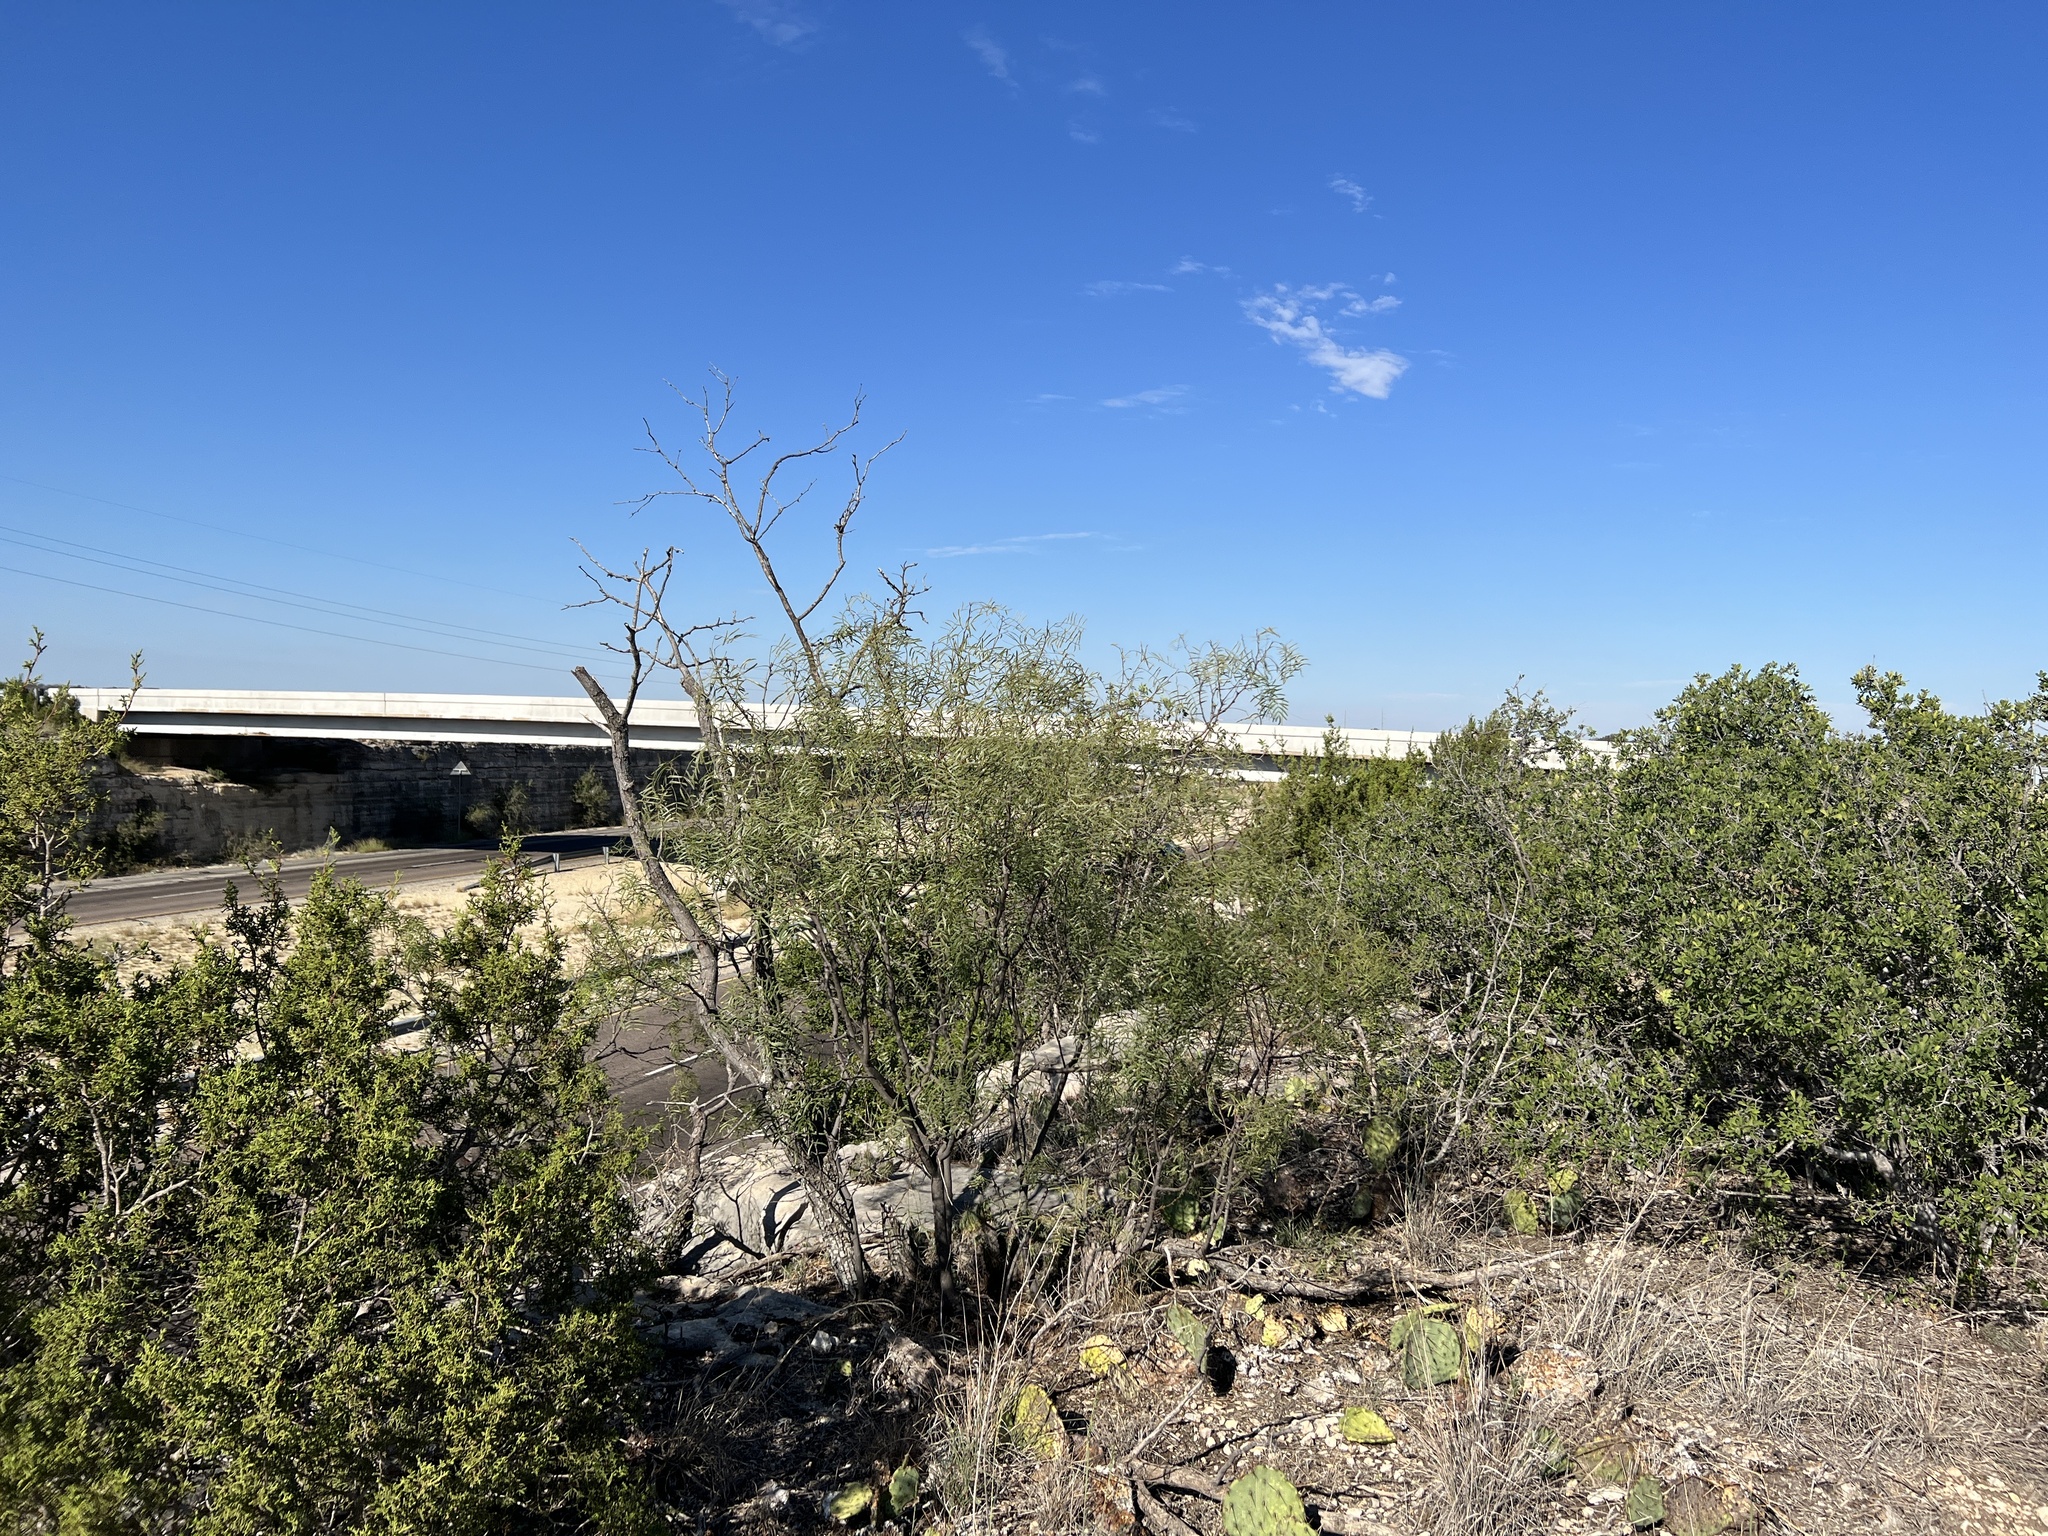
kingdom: Plantae
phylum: Tracheophyta
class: Magnoliopsida
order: Fabales
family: Fabaceae
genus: Prosopis
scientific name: Prosopis glandulosa
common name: Honey mesquite
